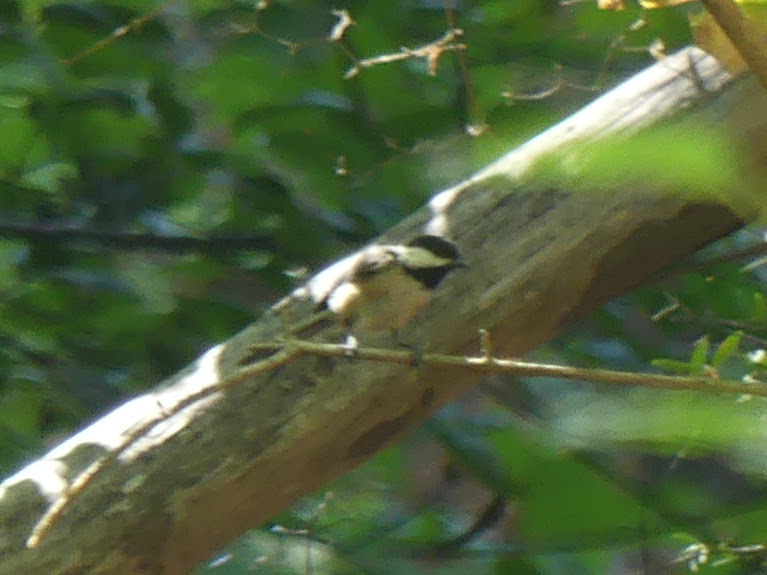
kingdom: Animalia
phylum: Chordata
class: Aves
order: Passeriformes
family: Paridae
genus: Poecile
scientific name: Poecile atricapillus
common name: Black-capped chickadee
